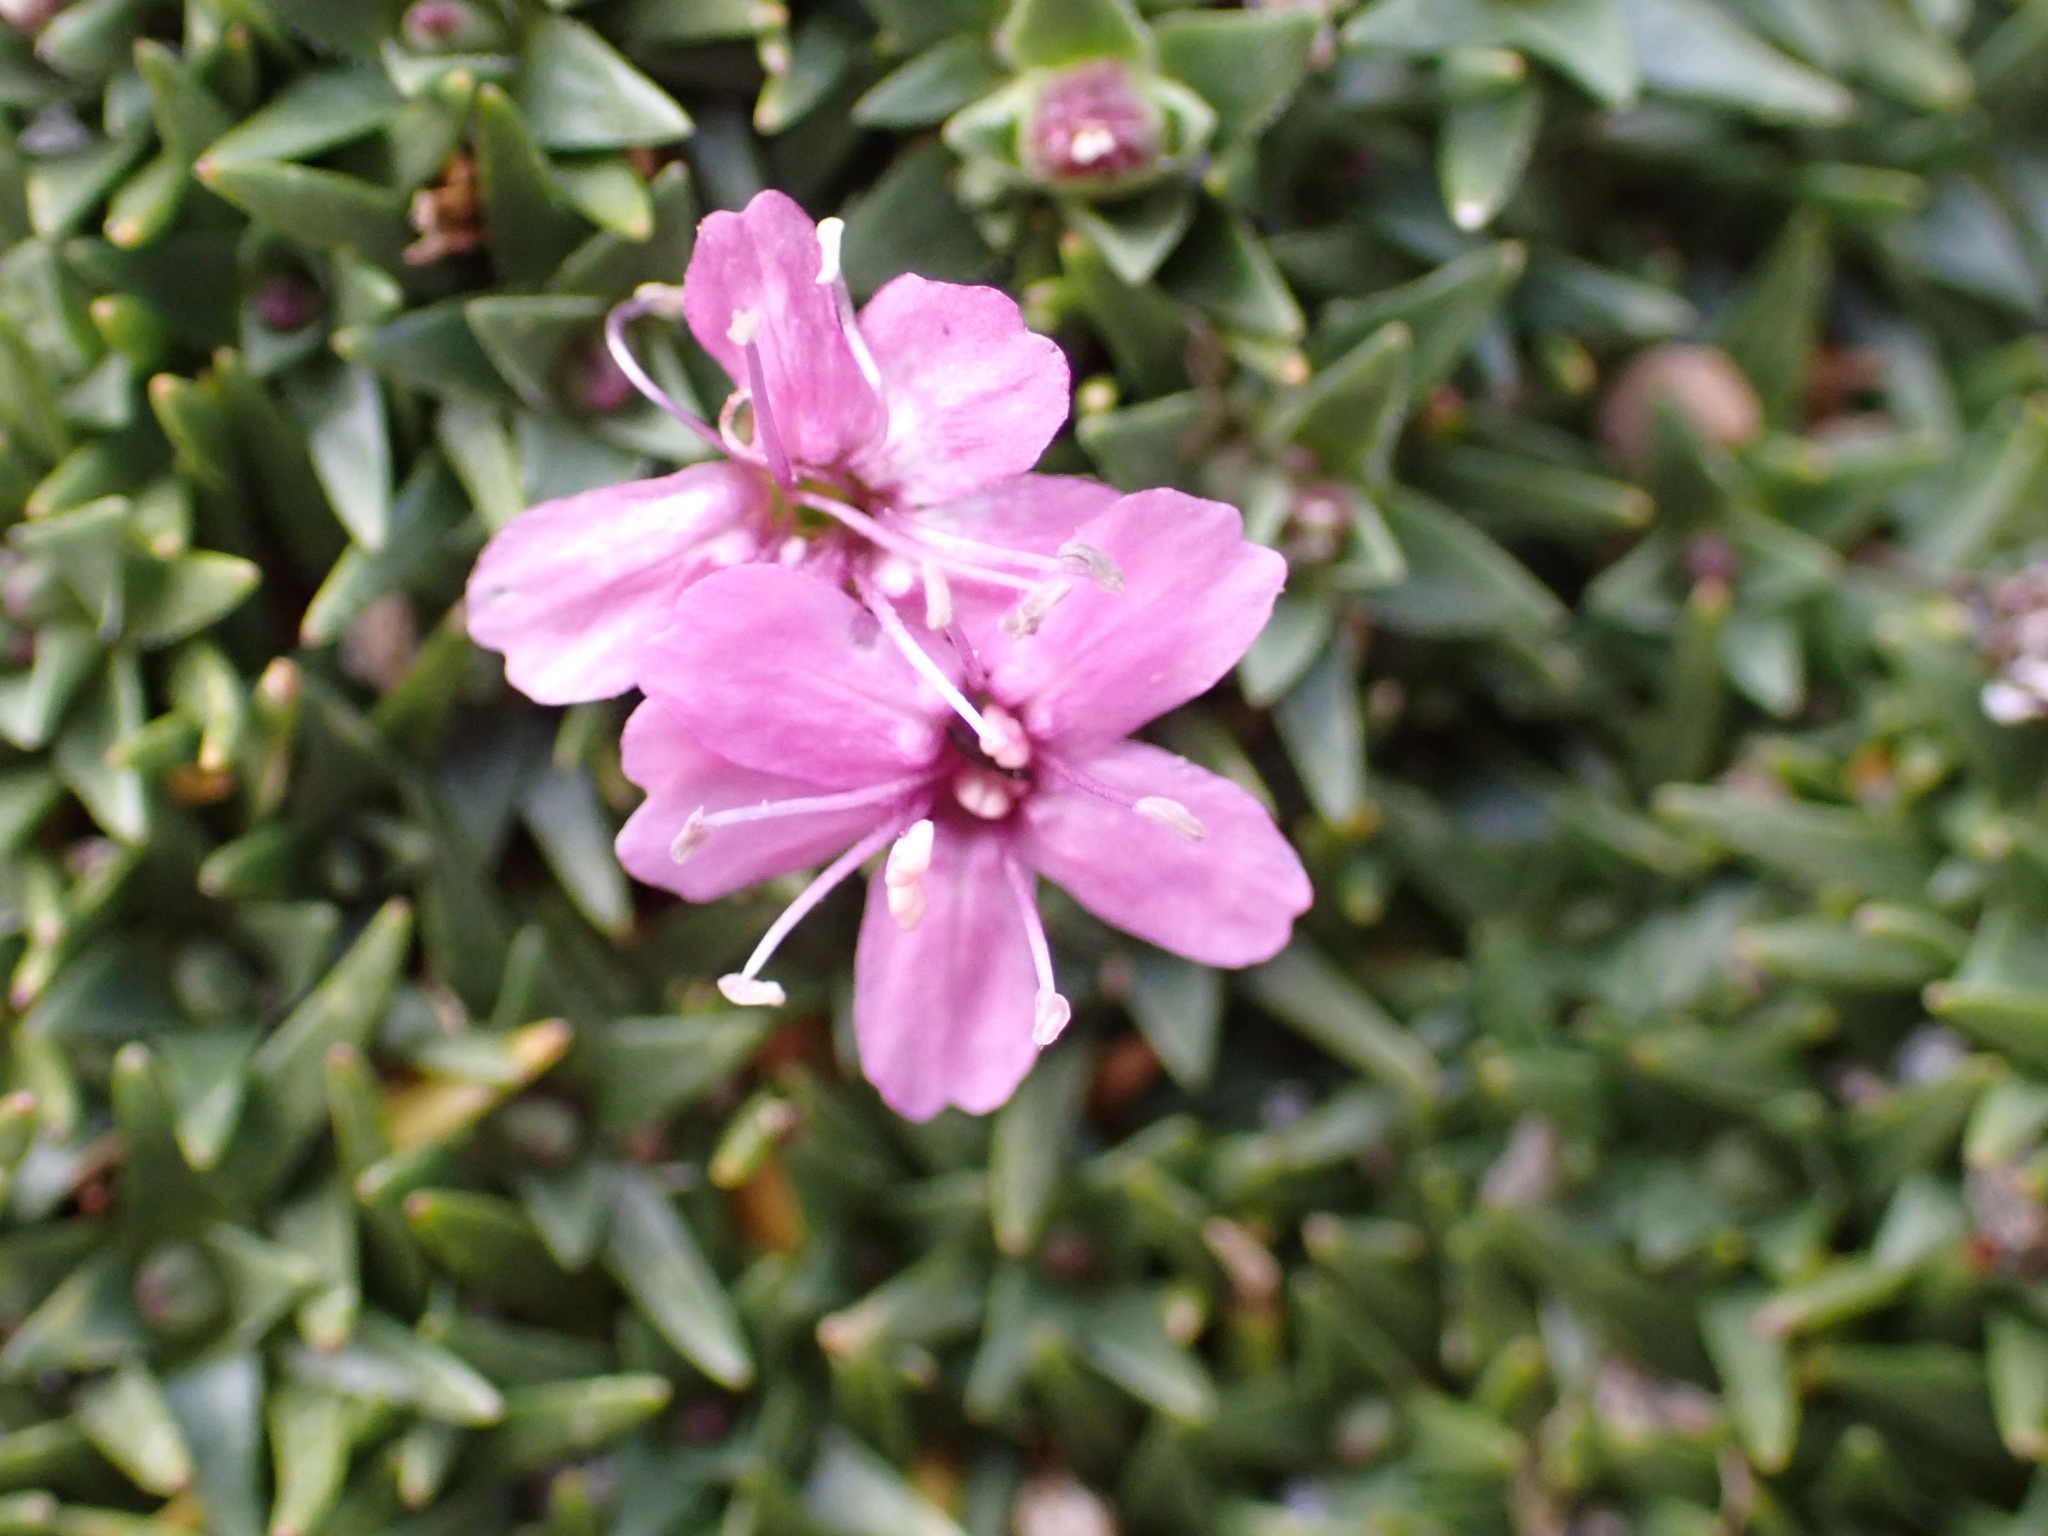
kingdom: Plantae
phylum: Tracheophyta
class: Magnoliopsida
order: Caryophyllales
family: Caryophyllaceae
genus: Silene
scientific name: Silene acaulis
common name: Moss campion
